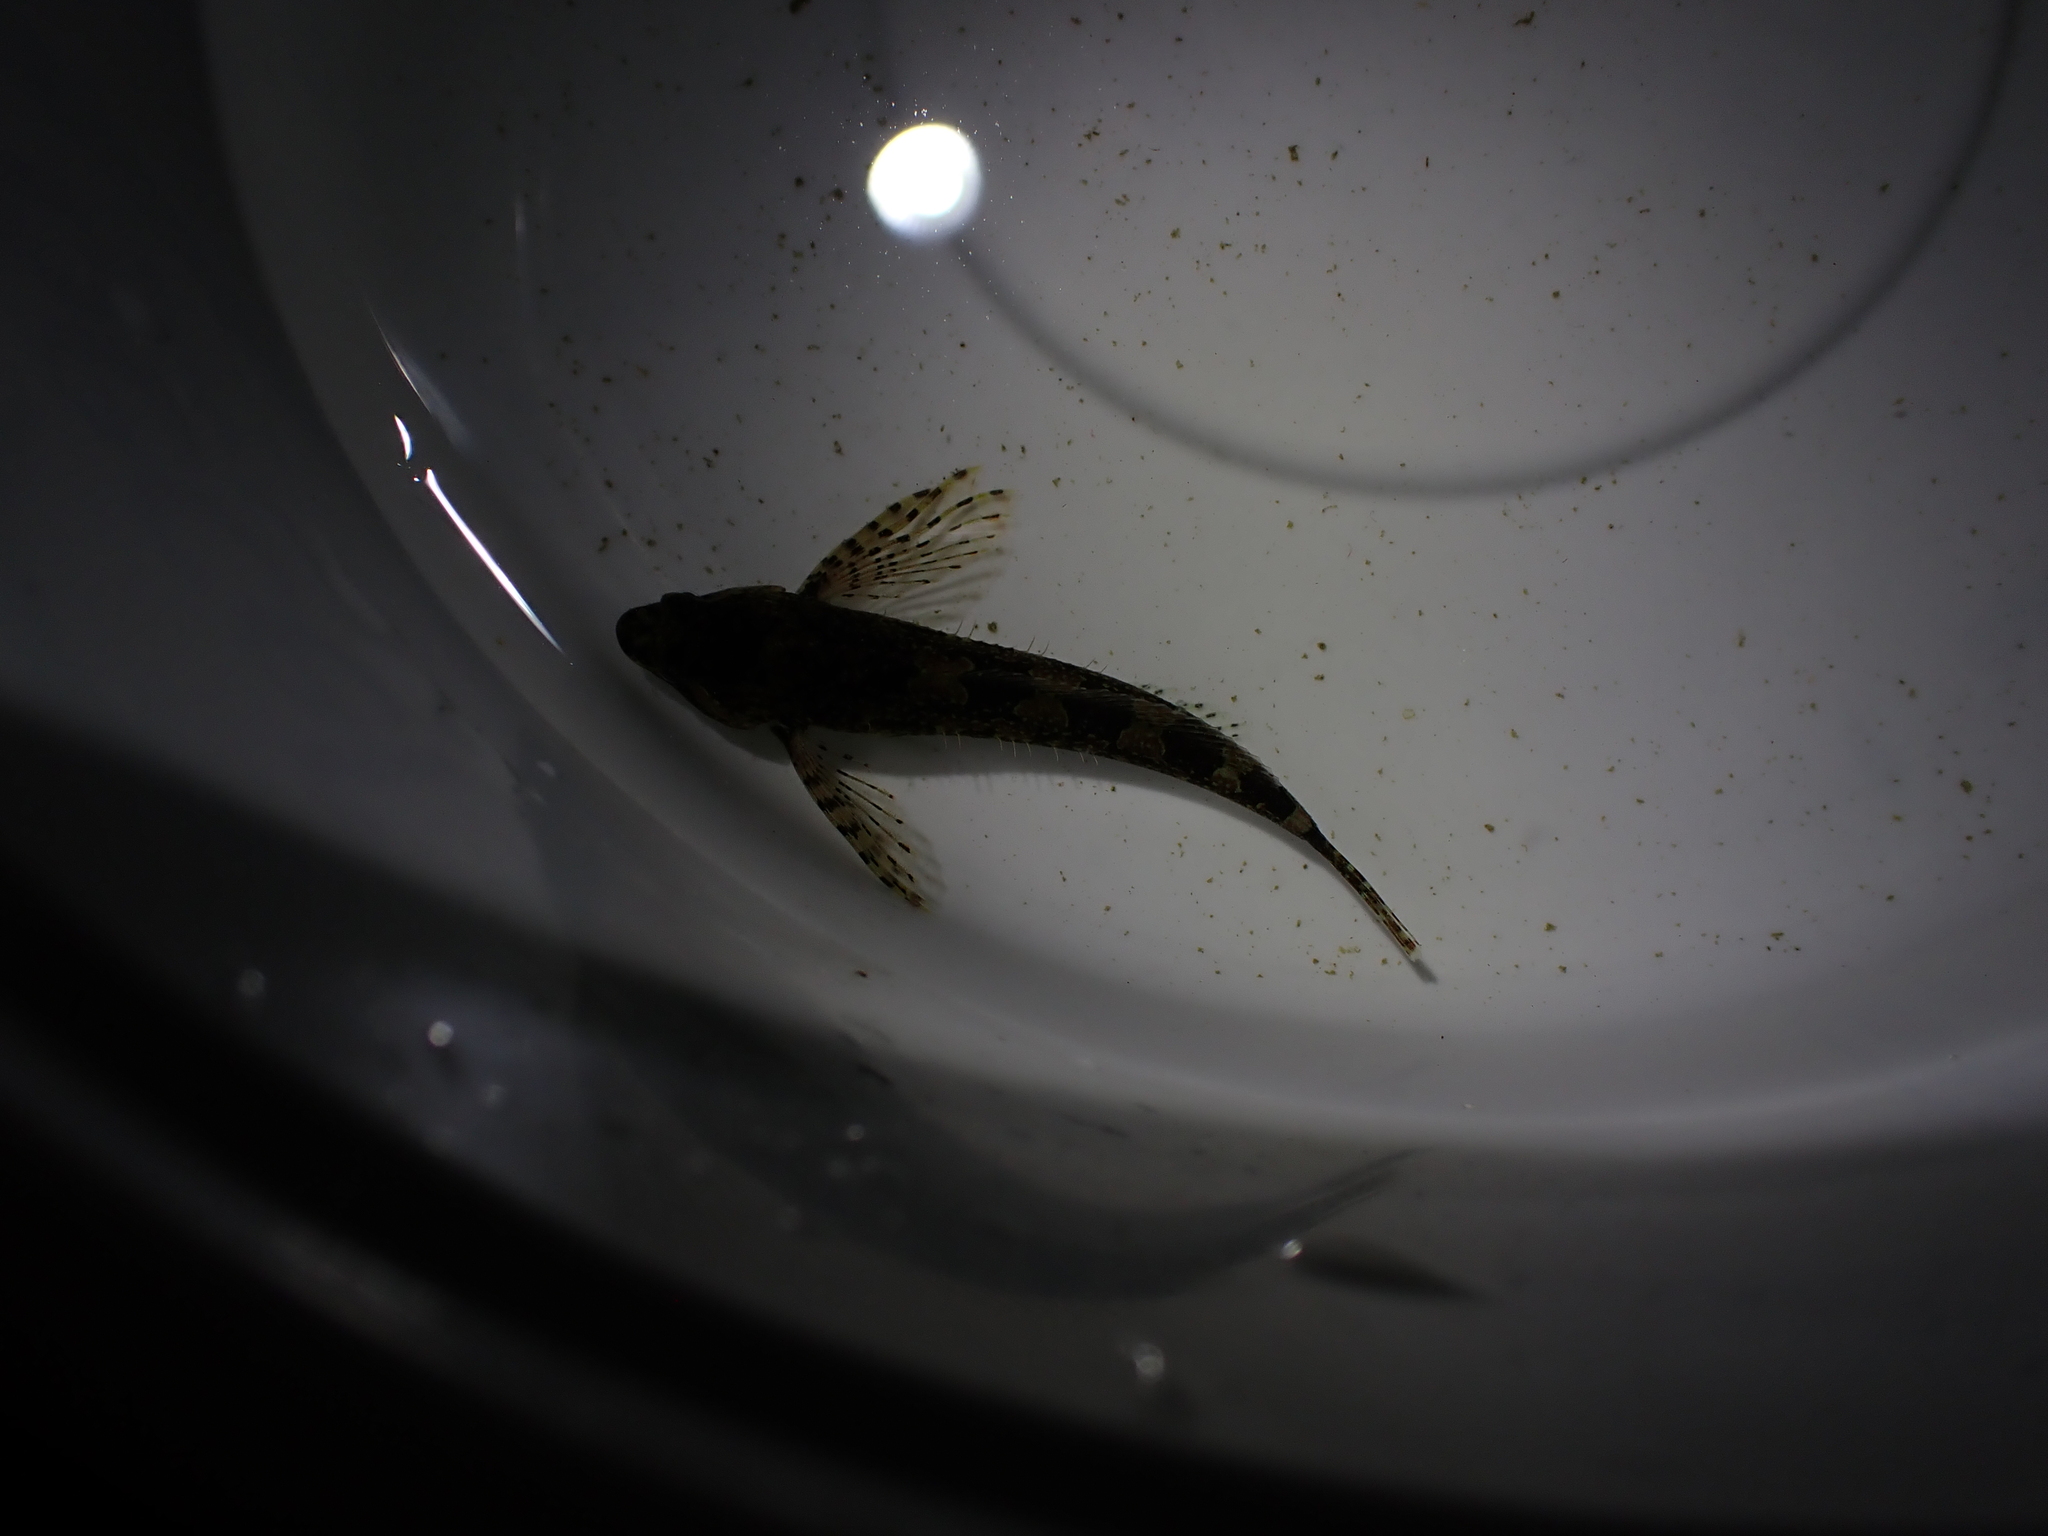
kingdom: Animalia
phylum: Chordata
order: Scorpaeniformes
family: Cottidae
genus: Oligocottus
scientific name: Oligocottus rimensis
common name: Saddleback sculpin
